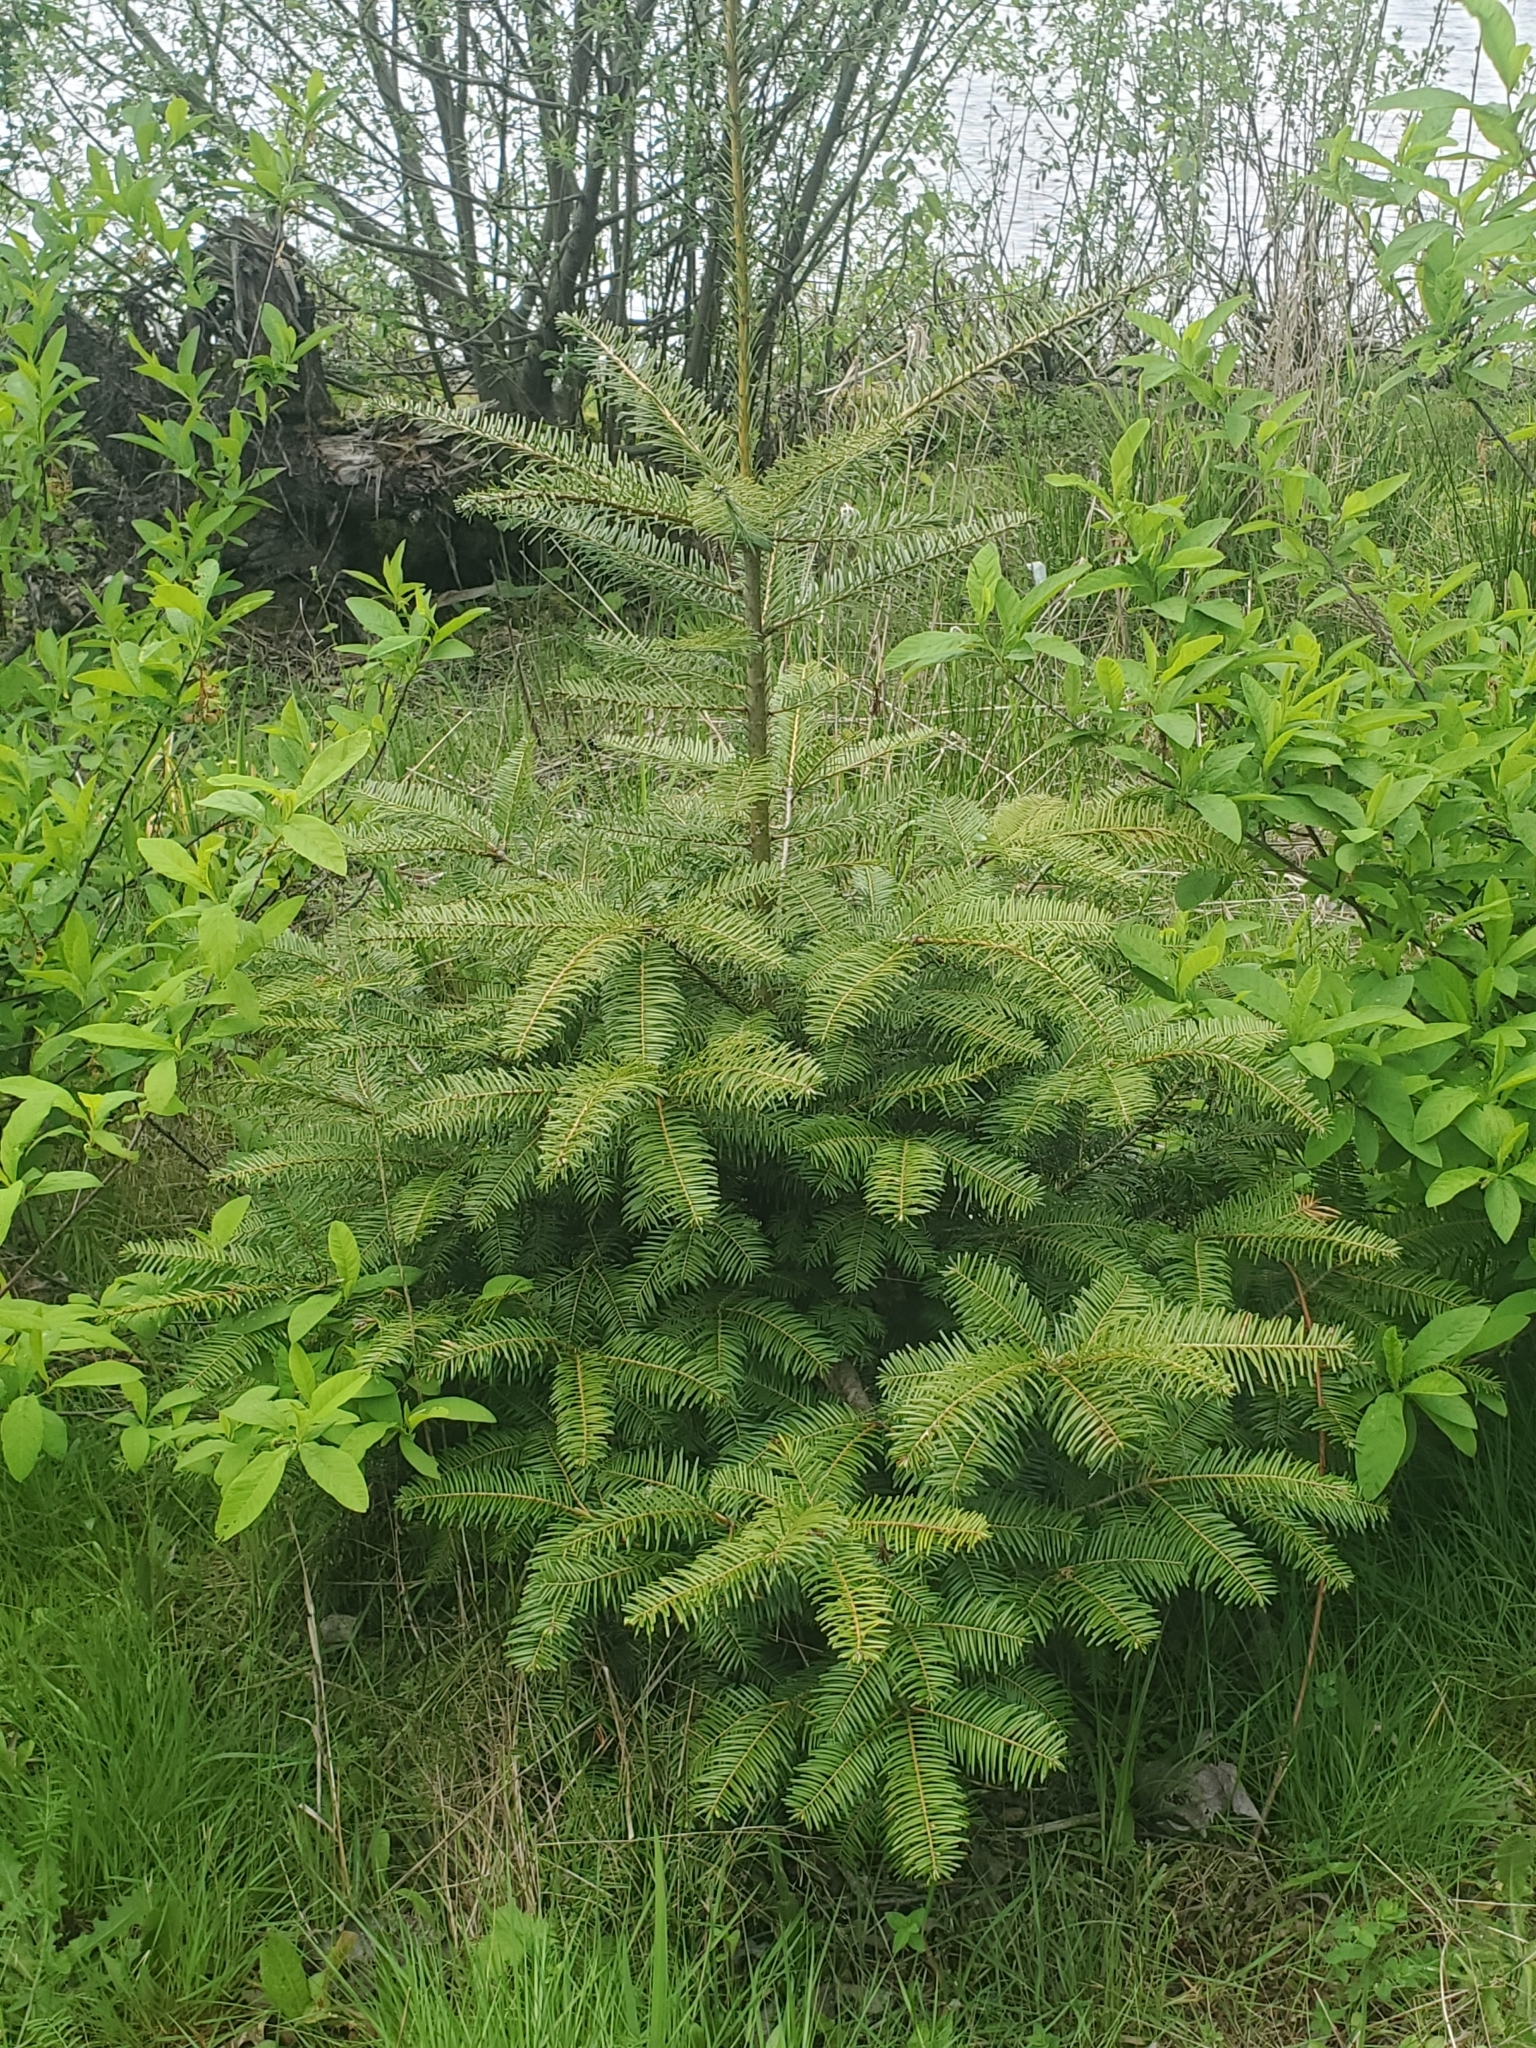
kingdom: Plantae
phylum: Tracheophyta
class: Pinopsida
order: Pinales
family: Pinaceae
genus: Abies
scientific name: Abies grandis
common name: Giant fir
